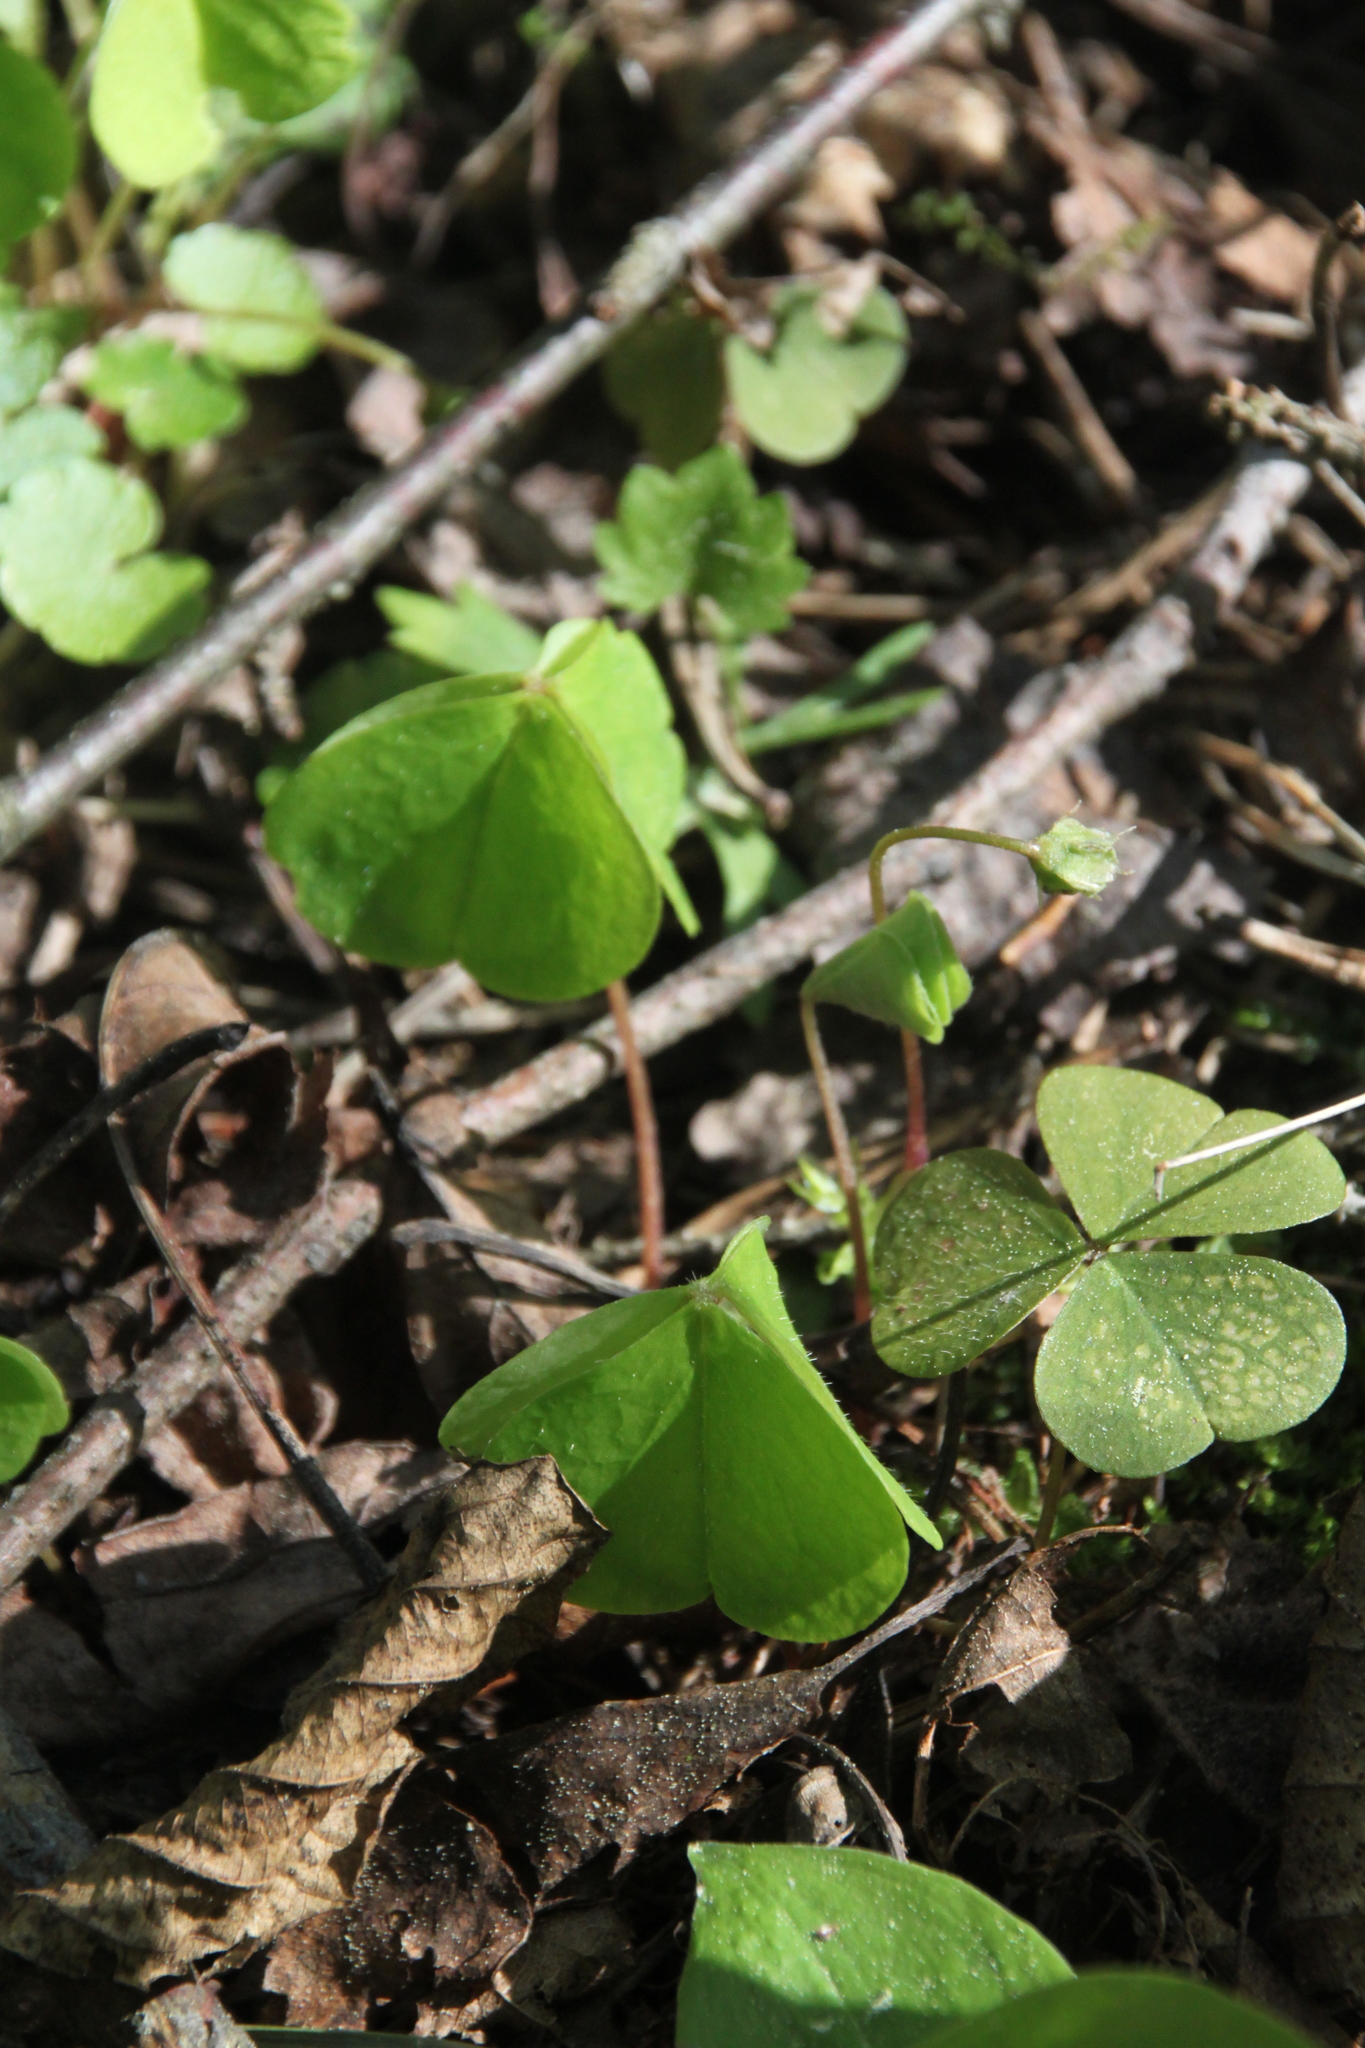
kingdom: Plantae
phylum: Tracheophyta
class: Magnoliopsida
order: Oxalidales
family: Oxalidaceae
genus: Oxalis
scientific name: Oxalis acetosella
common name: Wood-sorrel
